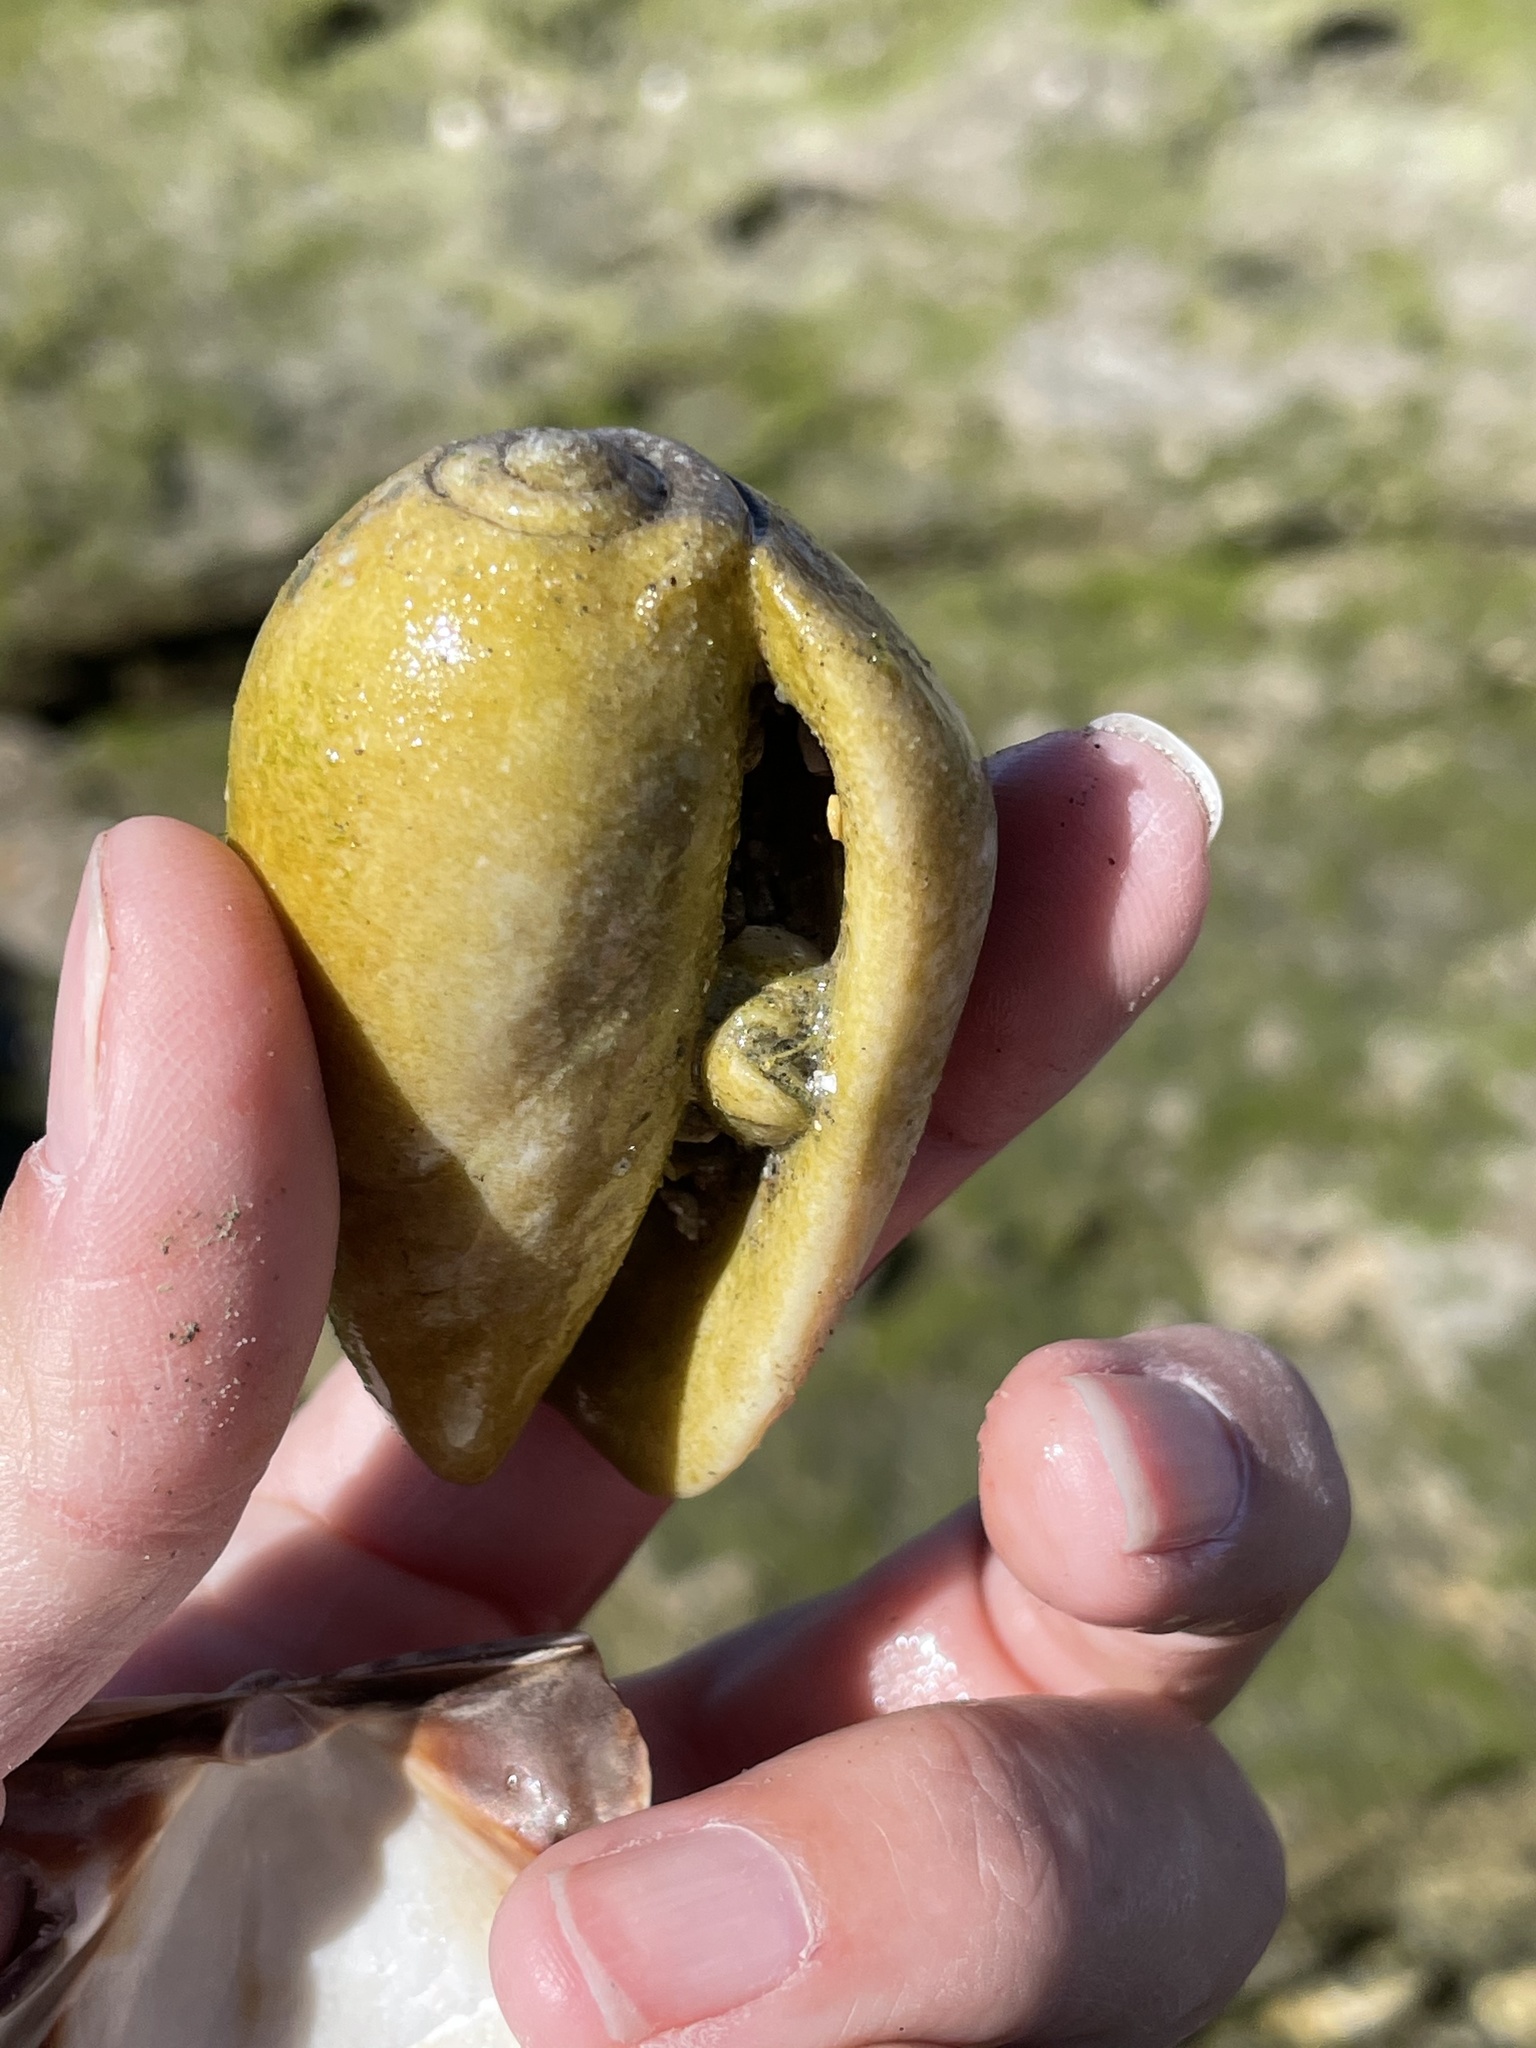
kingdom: Animalia
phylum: Mollusca
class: Gastropoda
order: Neogastropoda
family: Olividae
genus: Oliva
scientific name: Oliva incrassata
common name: Angled olive
